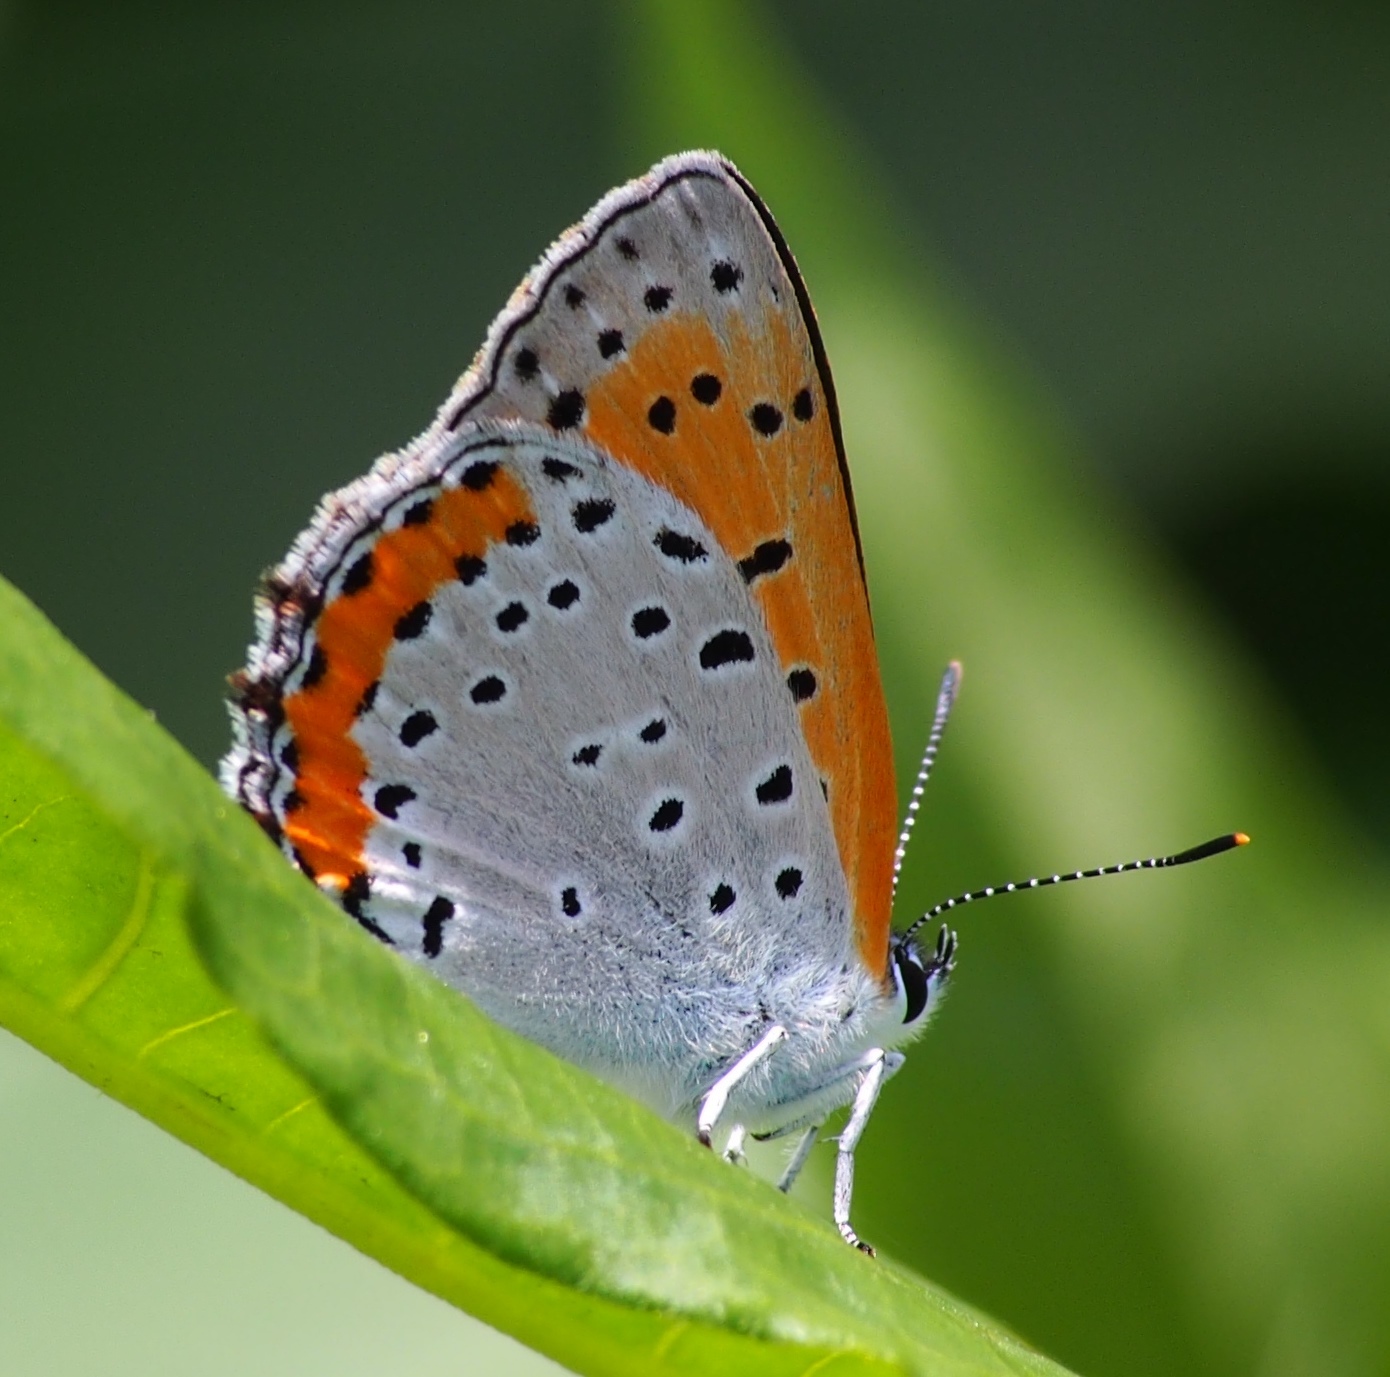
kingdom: Animalia
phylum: Arthropoda
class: Insecta
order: Lepidoptera
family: Lycaenidae
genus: Tharsalea
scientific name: Tharsalea hyllus
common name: Bronze copper
